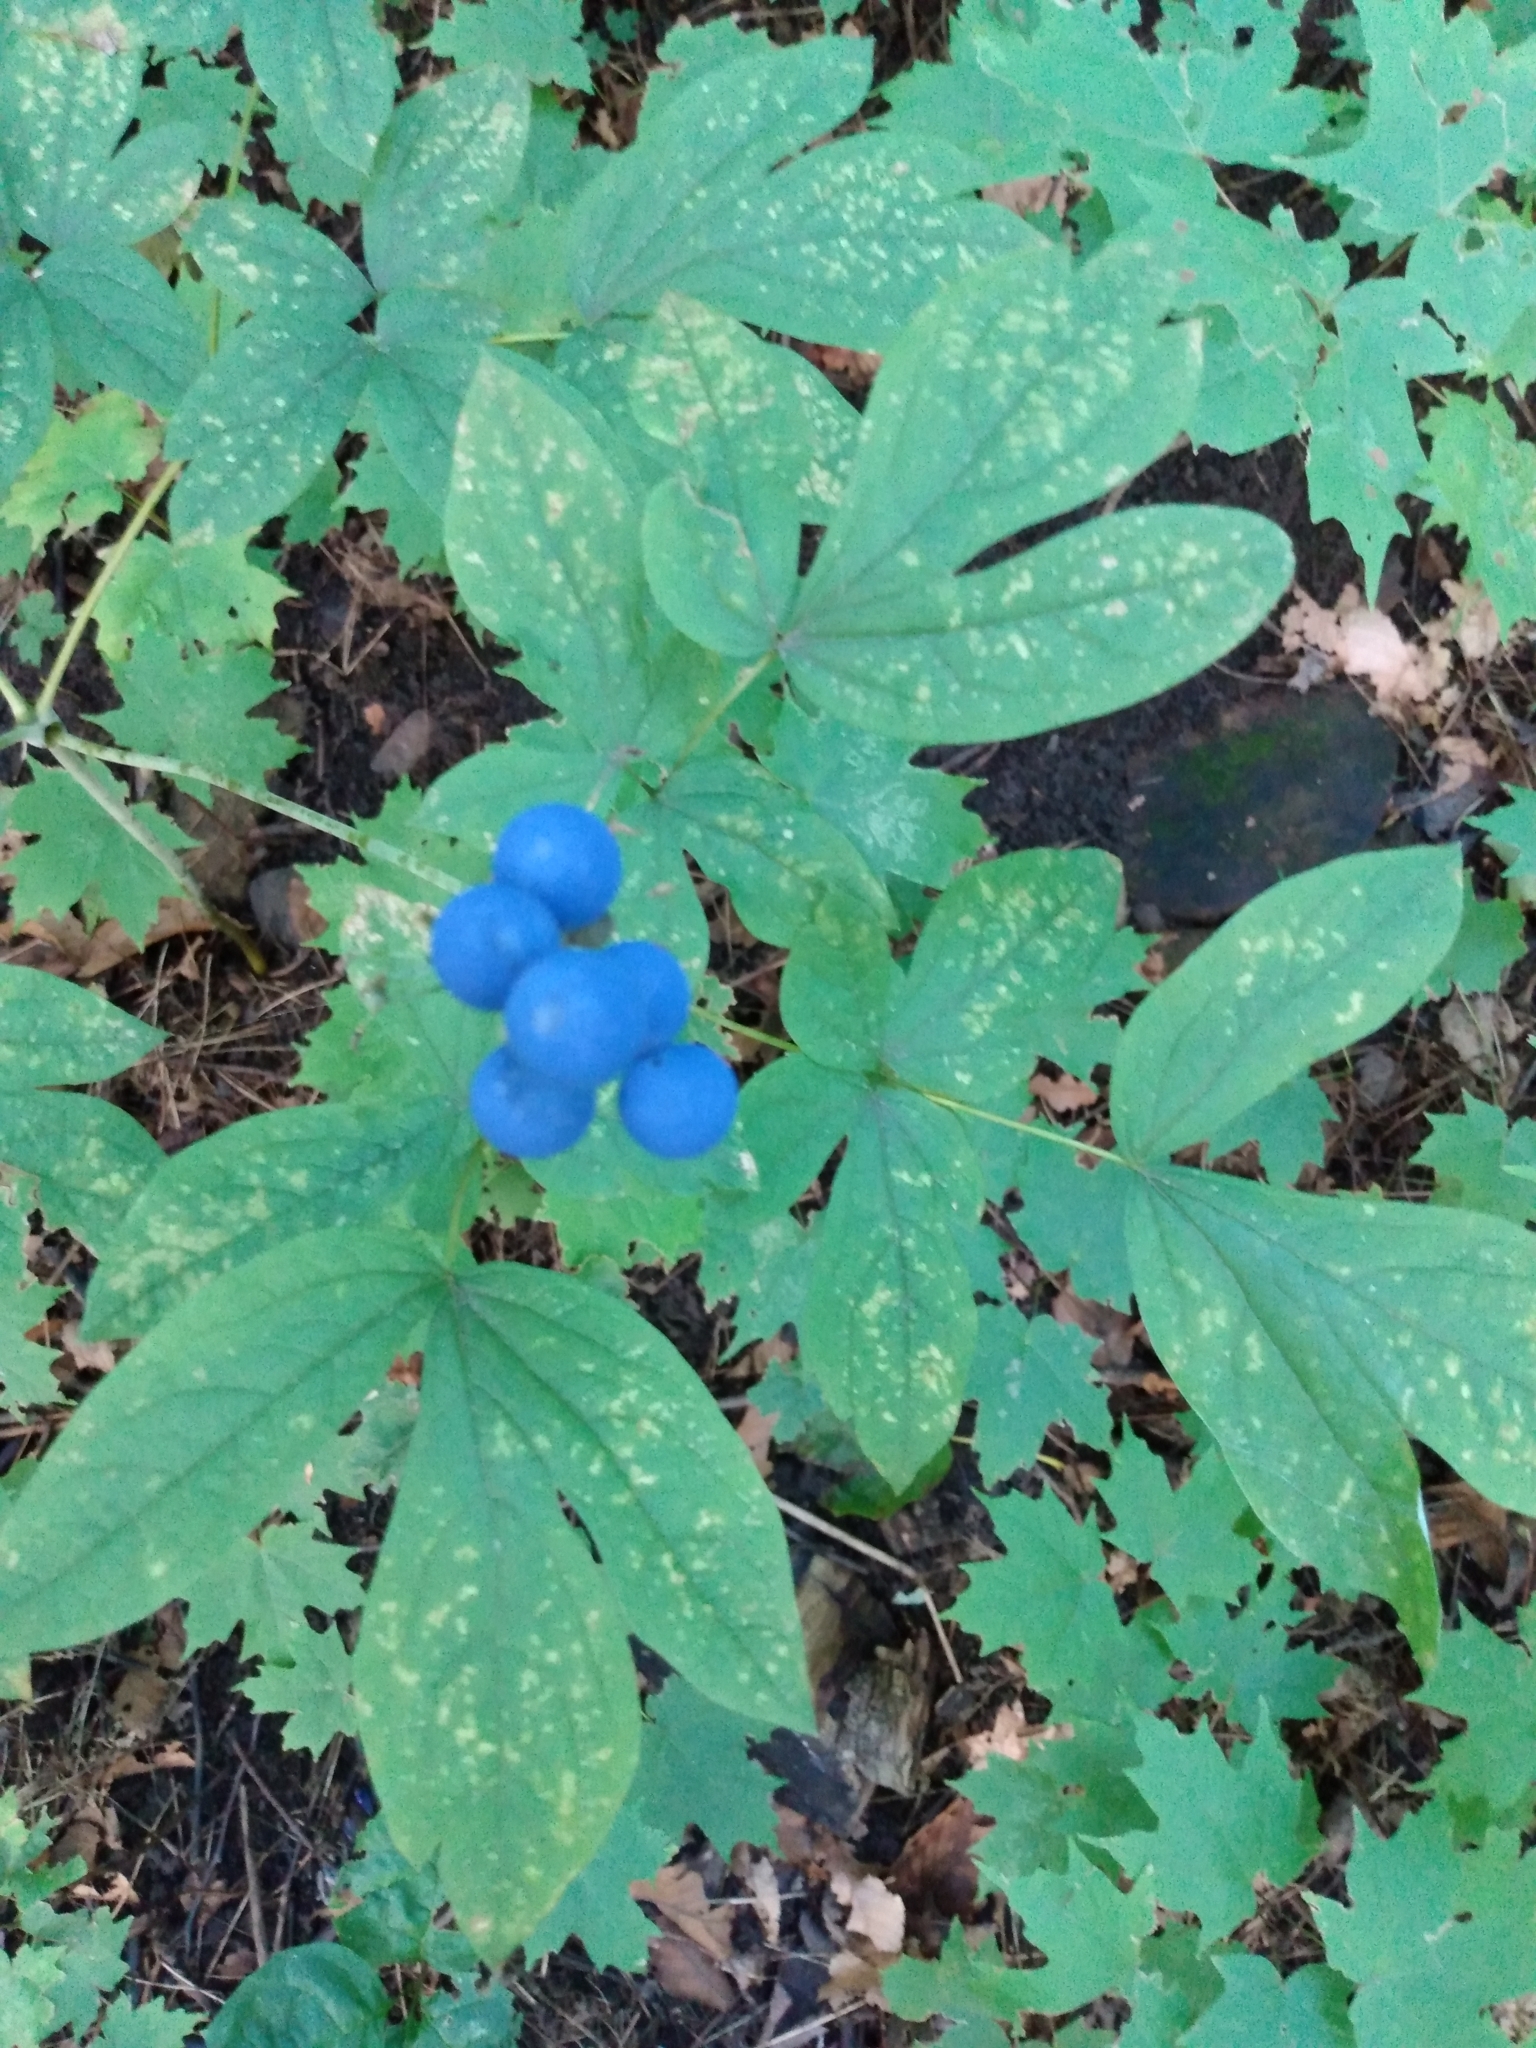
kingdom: Plantae
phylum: Tracheophyta
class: Magnoliopsida
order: Ranunculales
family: Berberidaceae
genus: Caulophyllum
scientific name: Caulophyllum thalictroides
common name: Blue cohosh
